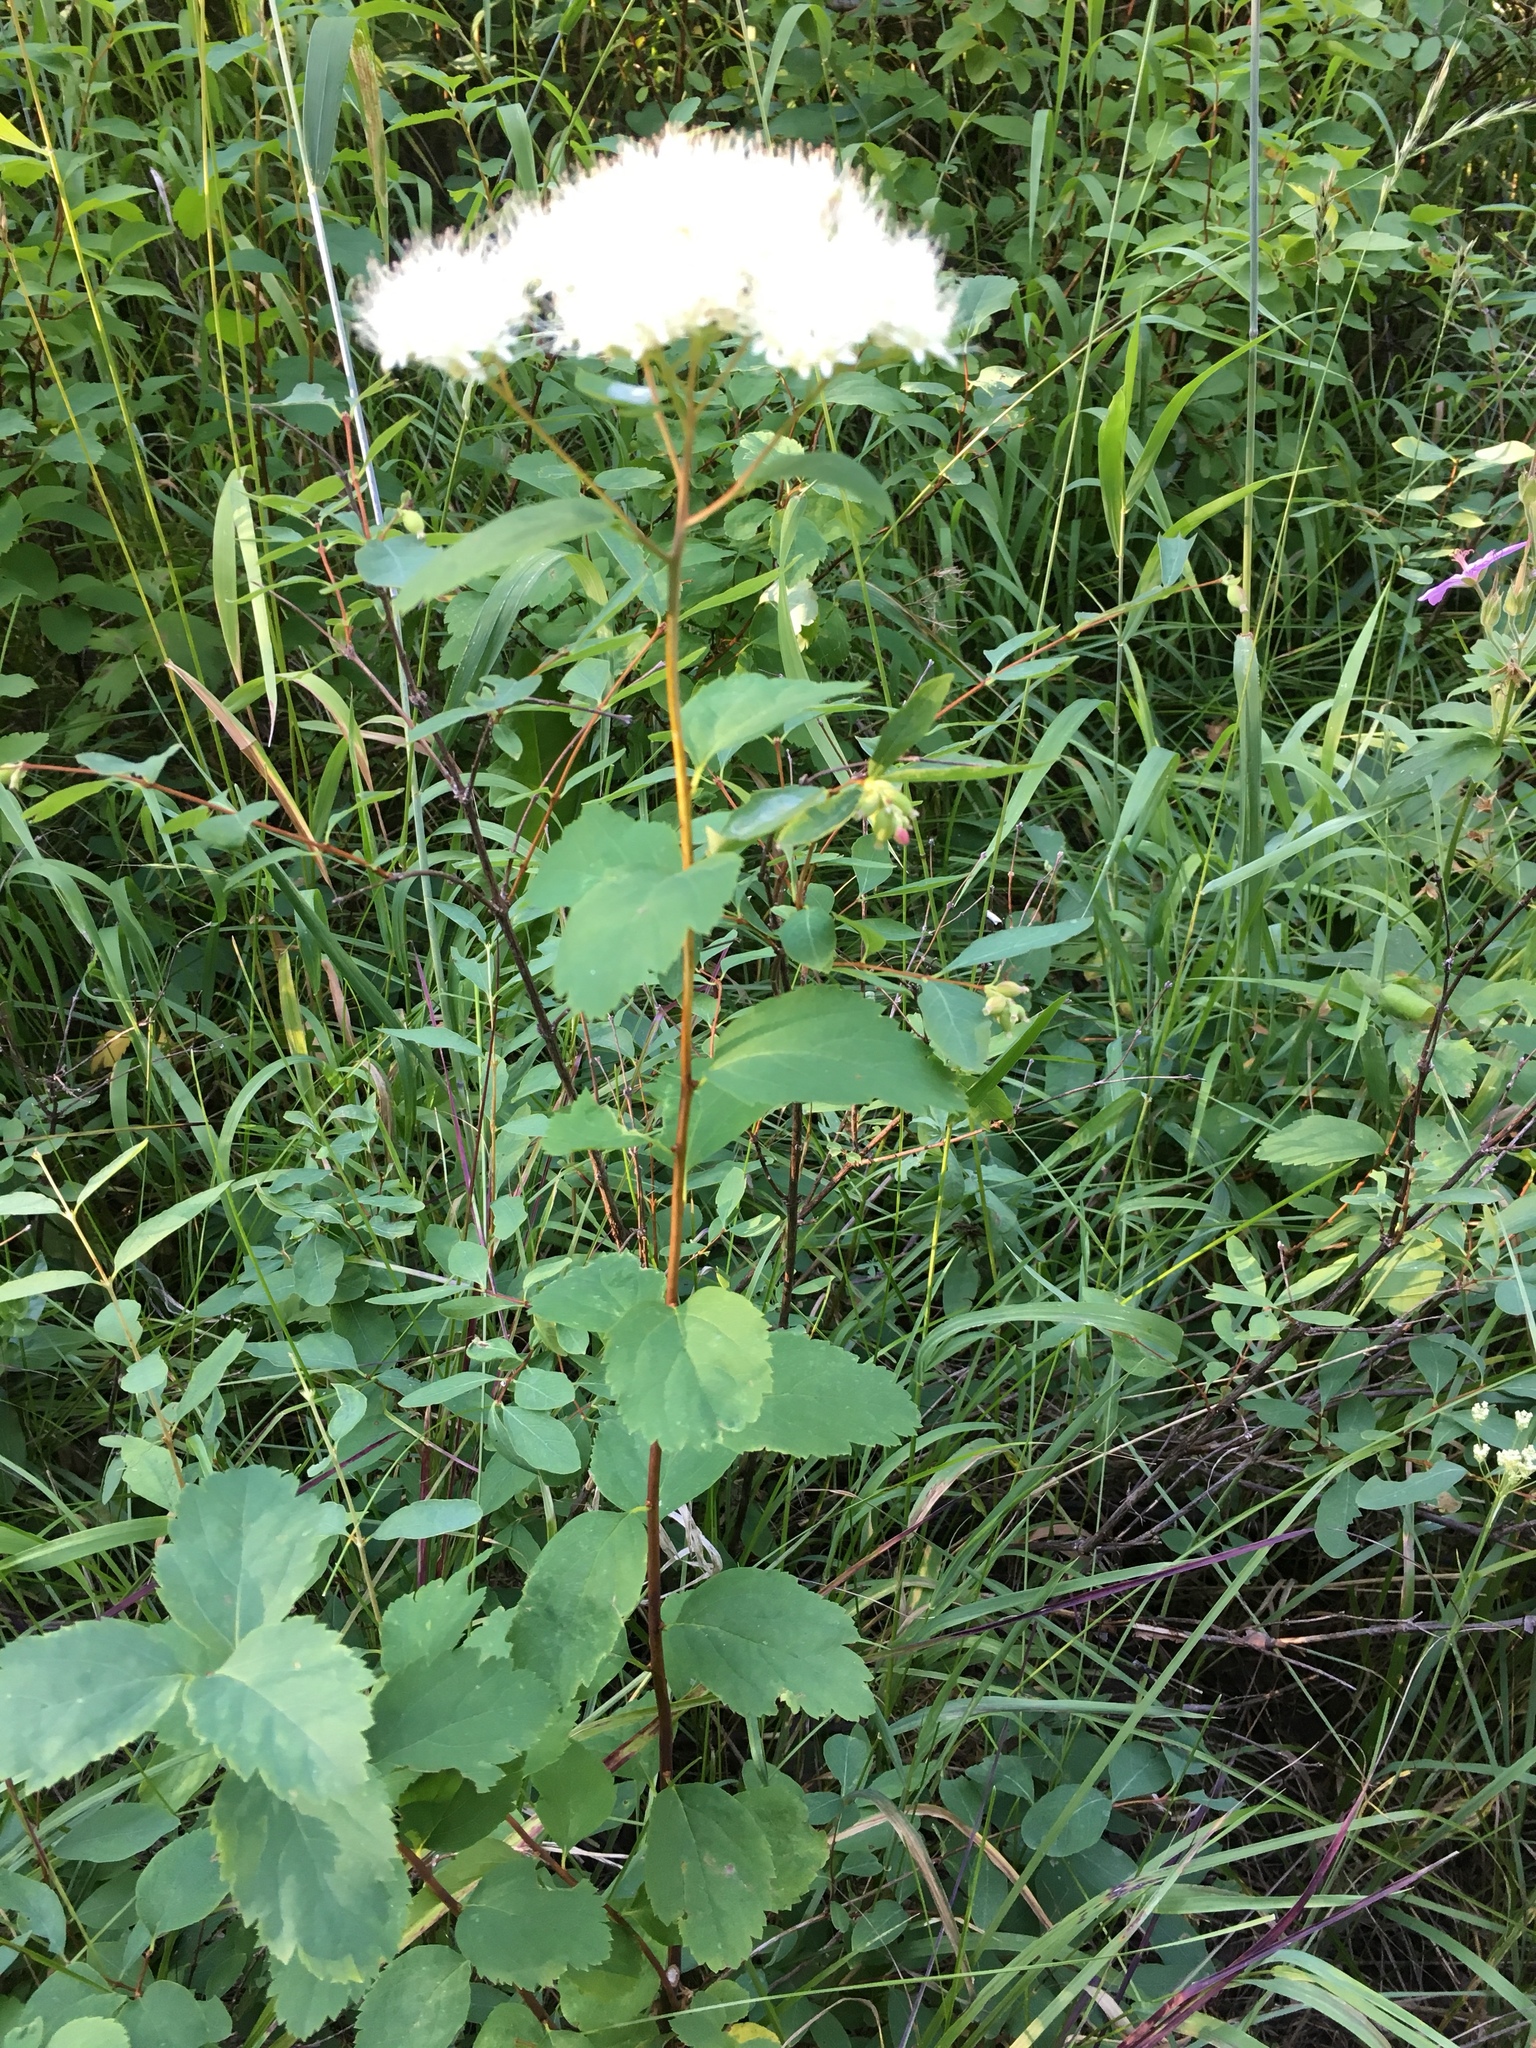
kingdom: Plantae
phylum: Tracheophyta
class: Magnoliopsida
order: Rosales
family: Rosaceae
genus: Spiraea
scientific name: Spiraea lucida
